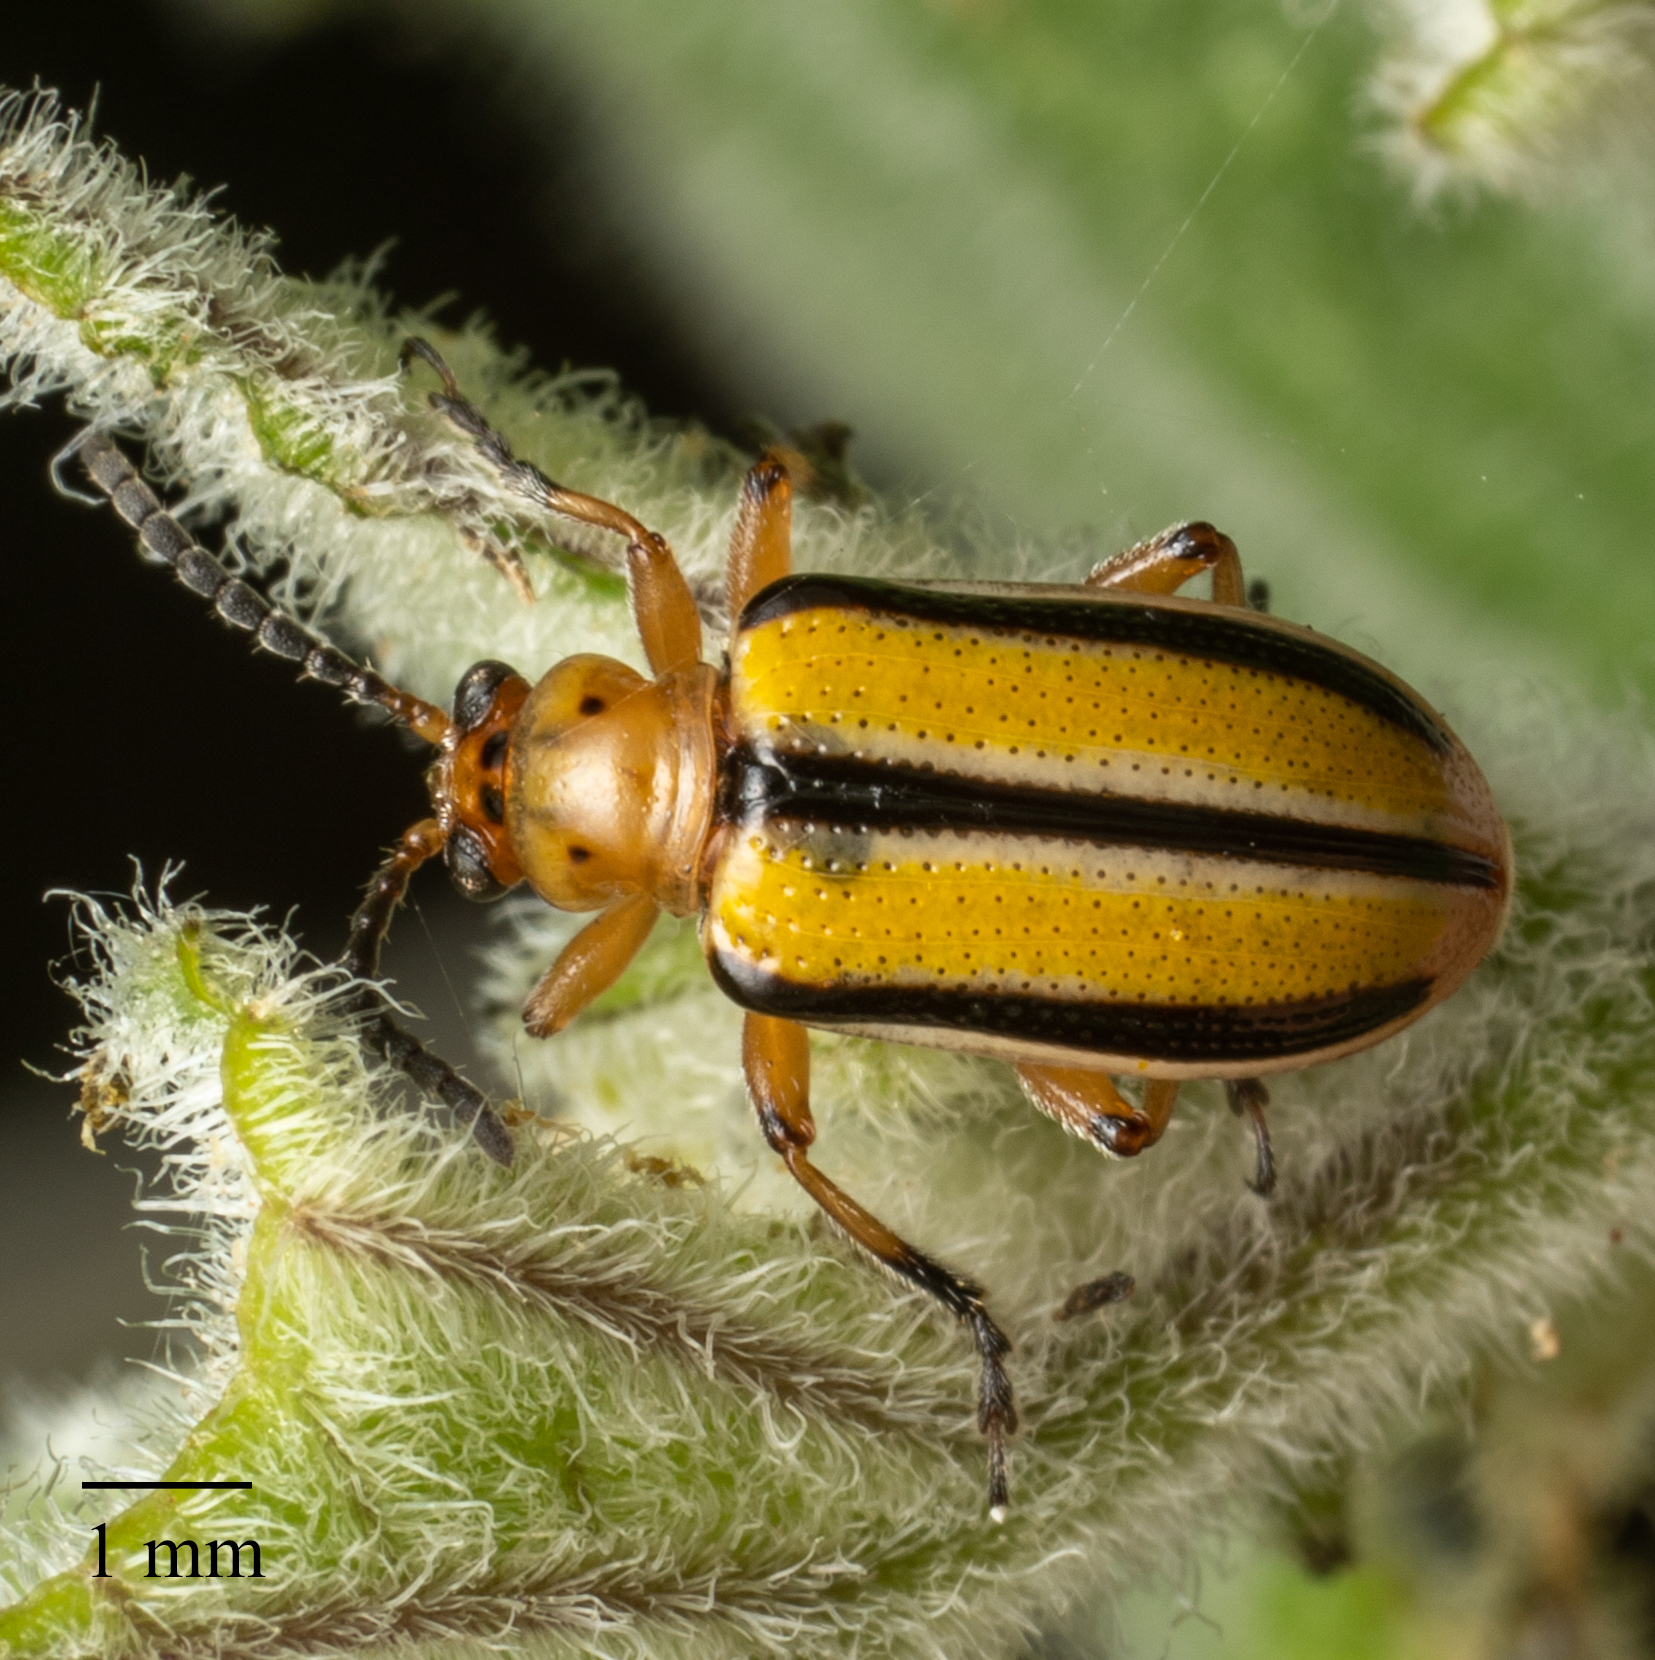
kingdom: Animalia
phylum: Arthropoda
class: Insecta
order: Coleoptera
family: Chrysomelidae
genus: Lema
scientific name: Lema daturaphila
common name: Leaf beetle
